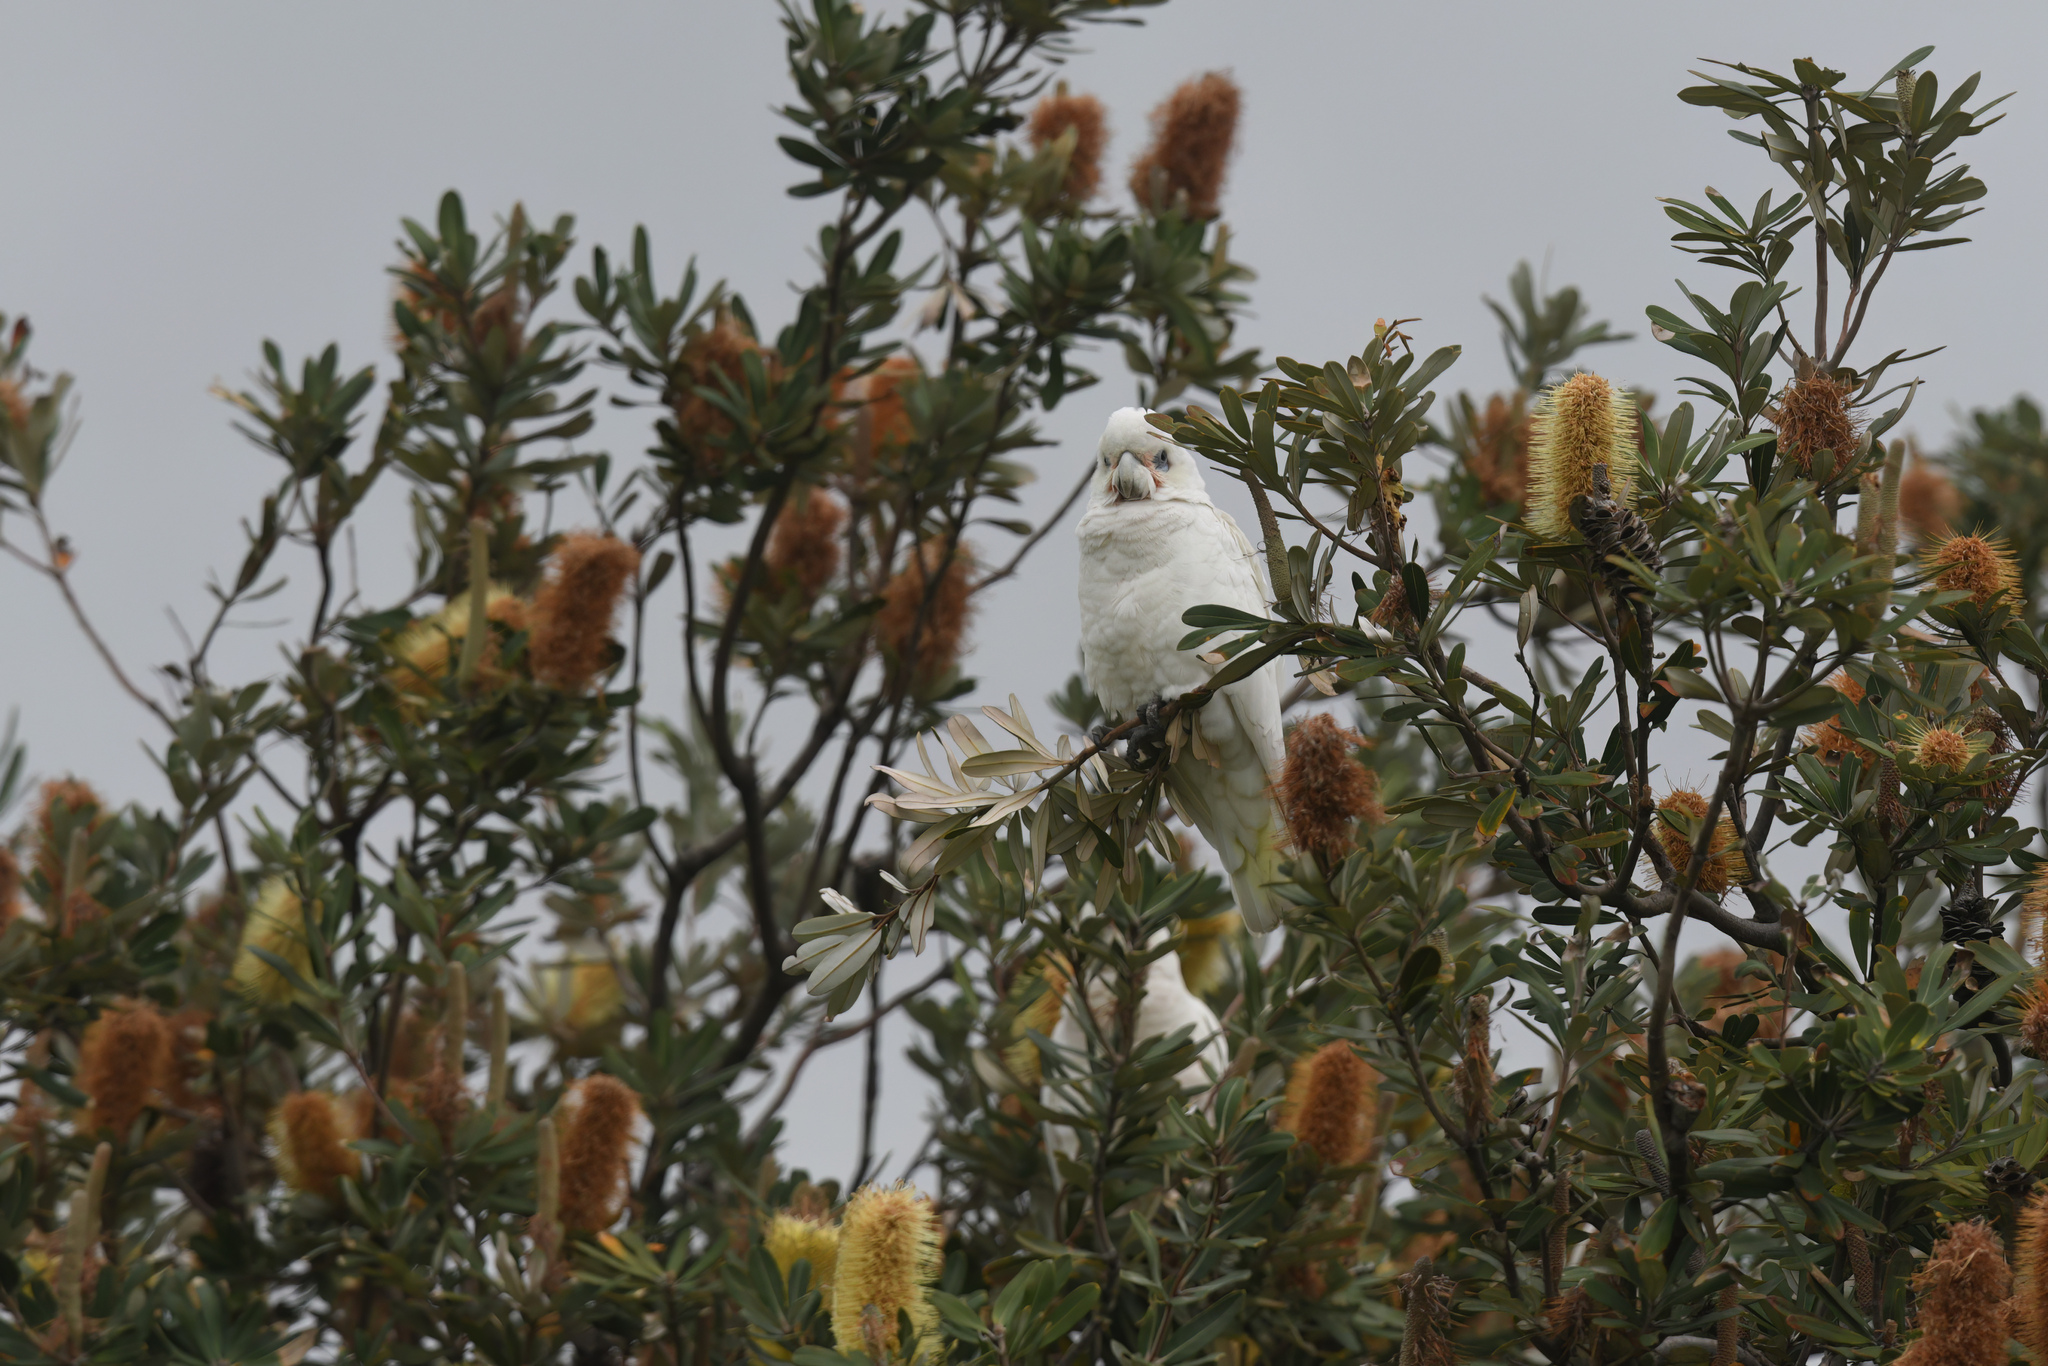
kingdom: Animalia
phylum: Chordata
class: Aves
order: Psittaciformes
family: Psittacidae
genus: Cacatua
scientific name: Cacatua sanguinea
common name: Little corella
